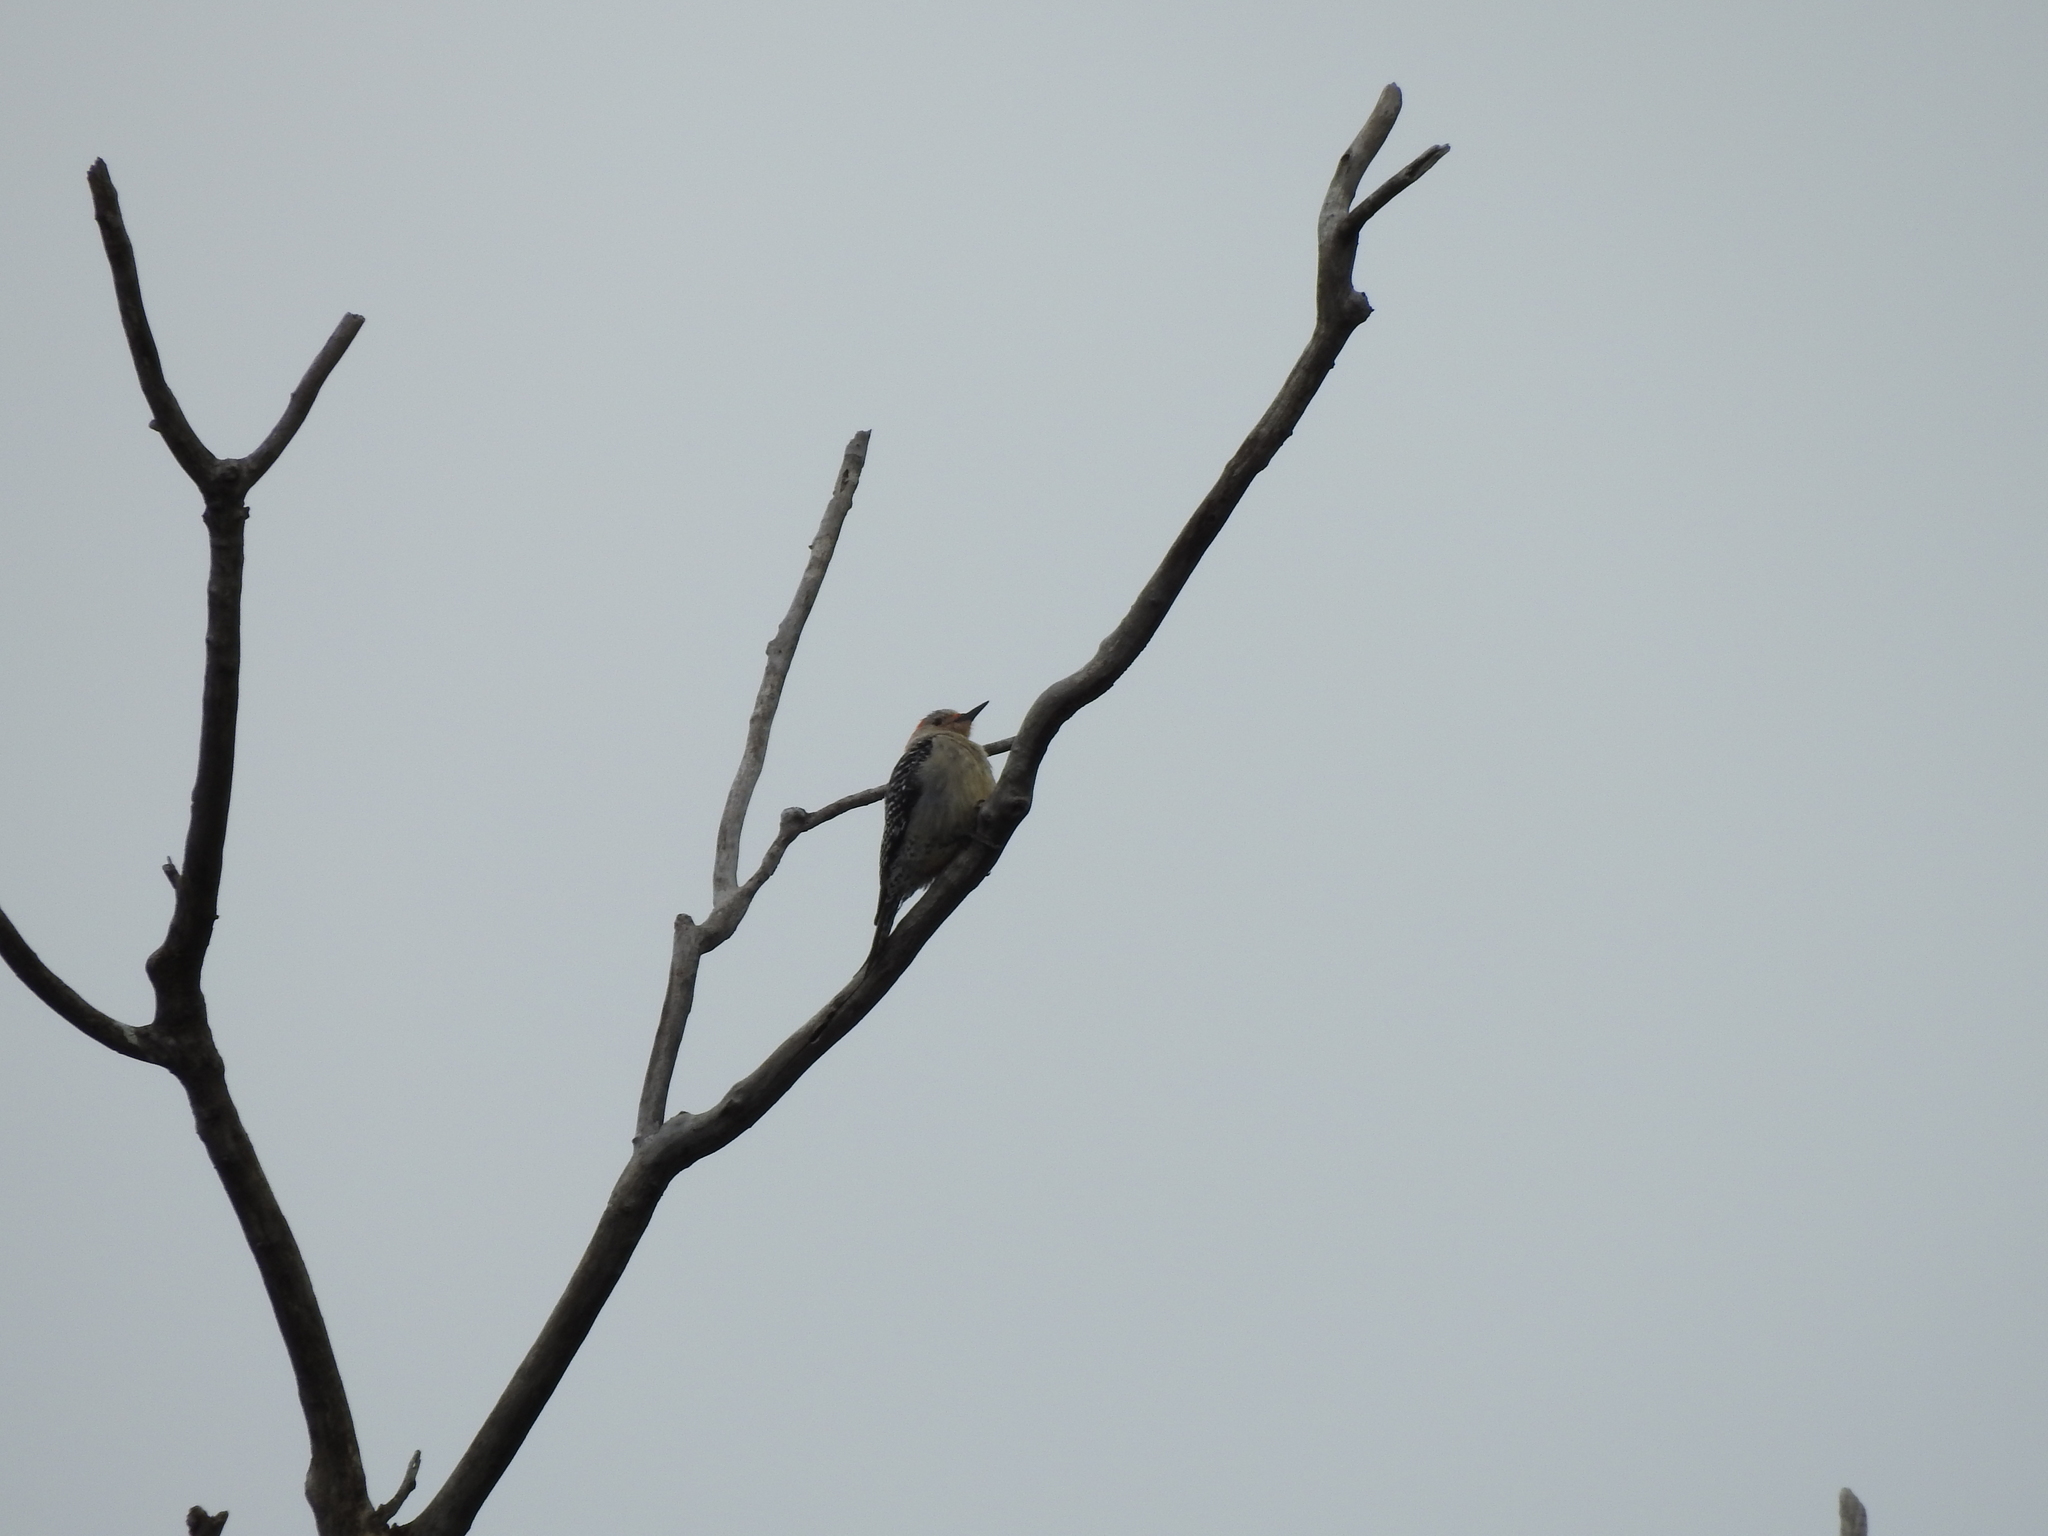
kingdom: Animalia
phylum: Chordata
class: Aves
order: Piciformes
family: Picidae
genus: Melanerpes
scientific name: Melanerpes carolinus
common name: Red-bellied woodpecker
